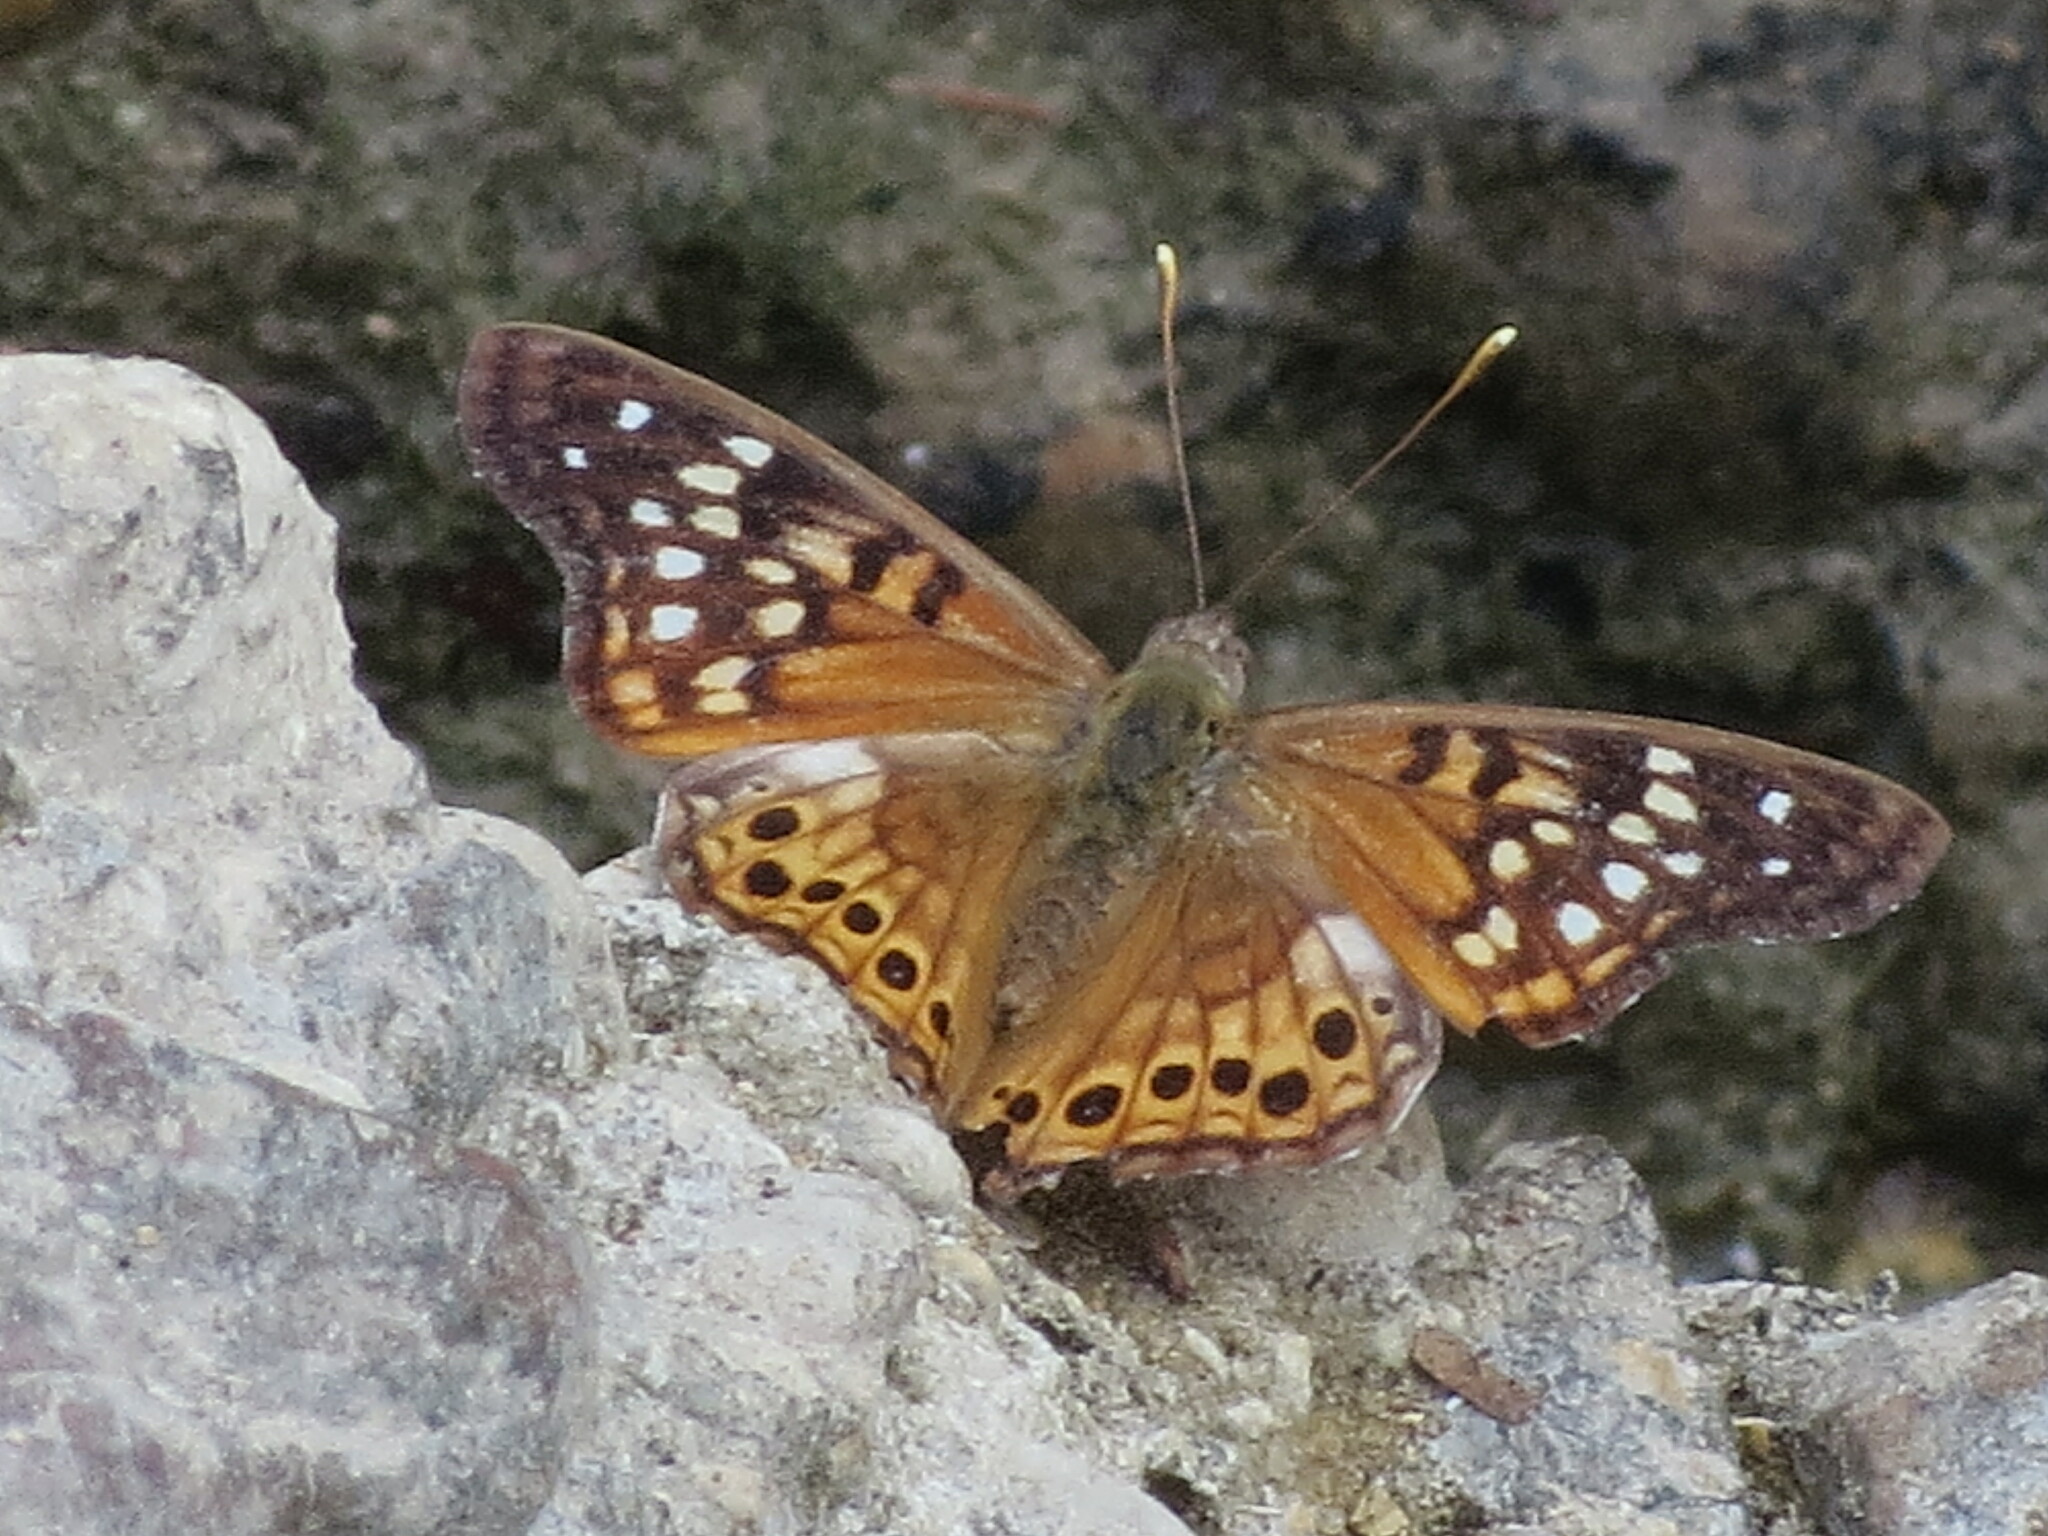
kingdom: Animalia
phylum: Arthropoda
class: Insecta
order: Lepidoptera
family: Nymphalidae
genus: Asterocampa
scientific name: Asterocampa clyton
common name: Tawny emperor
